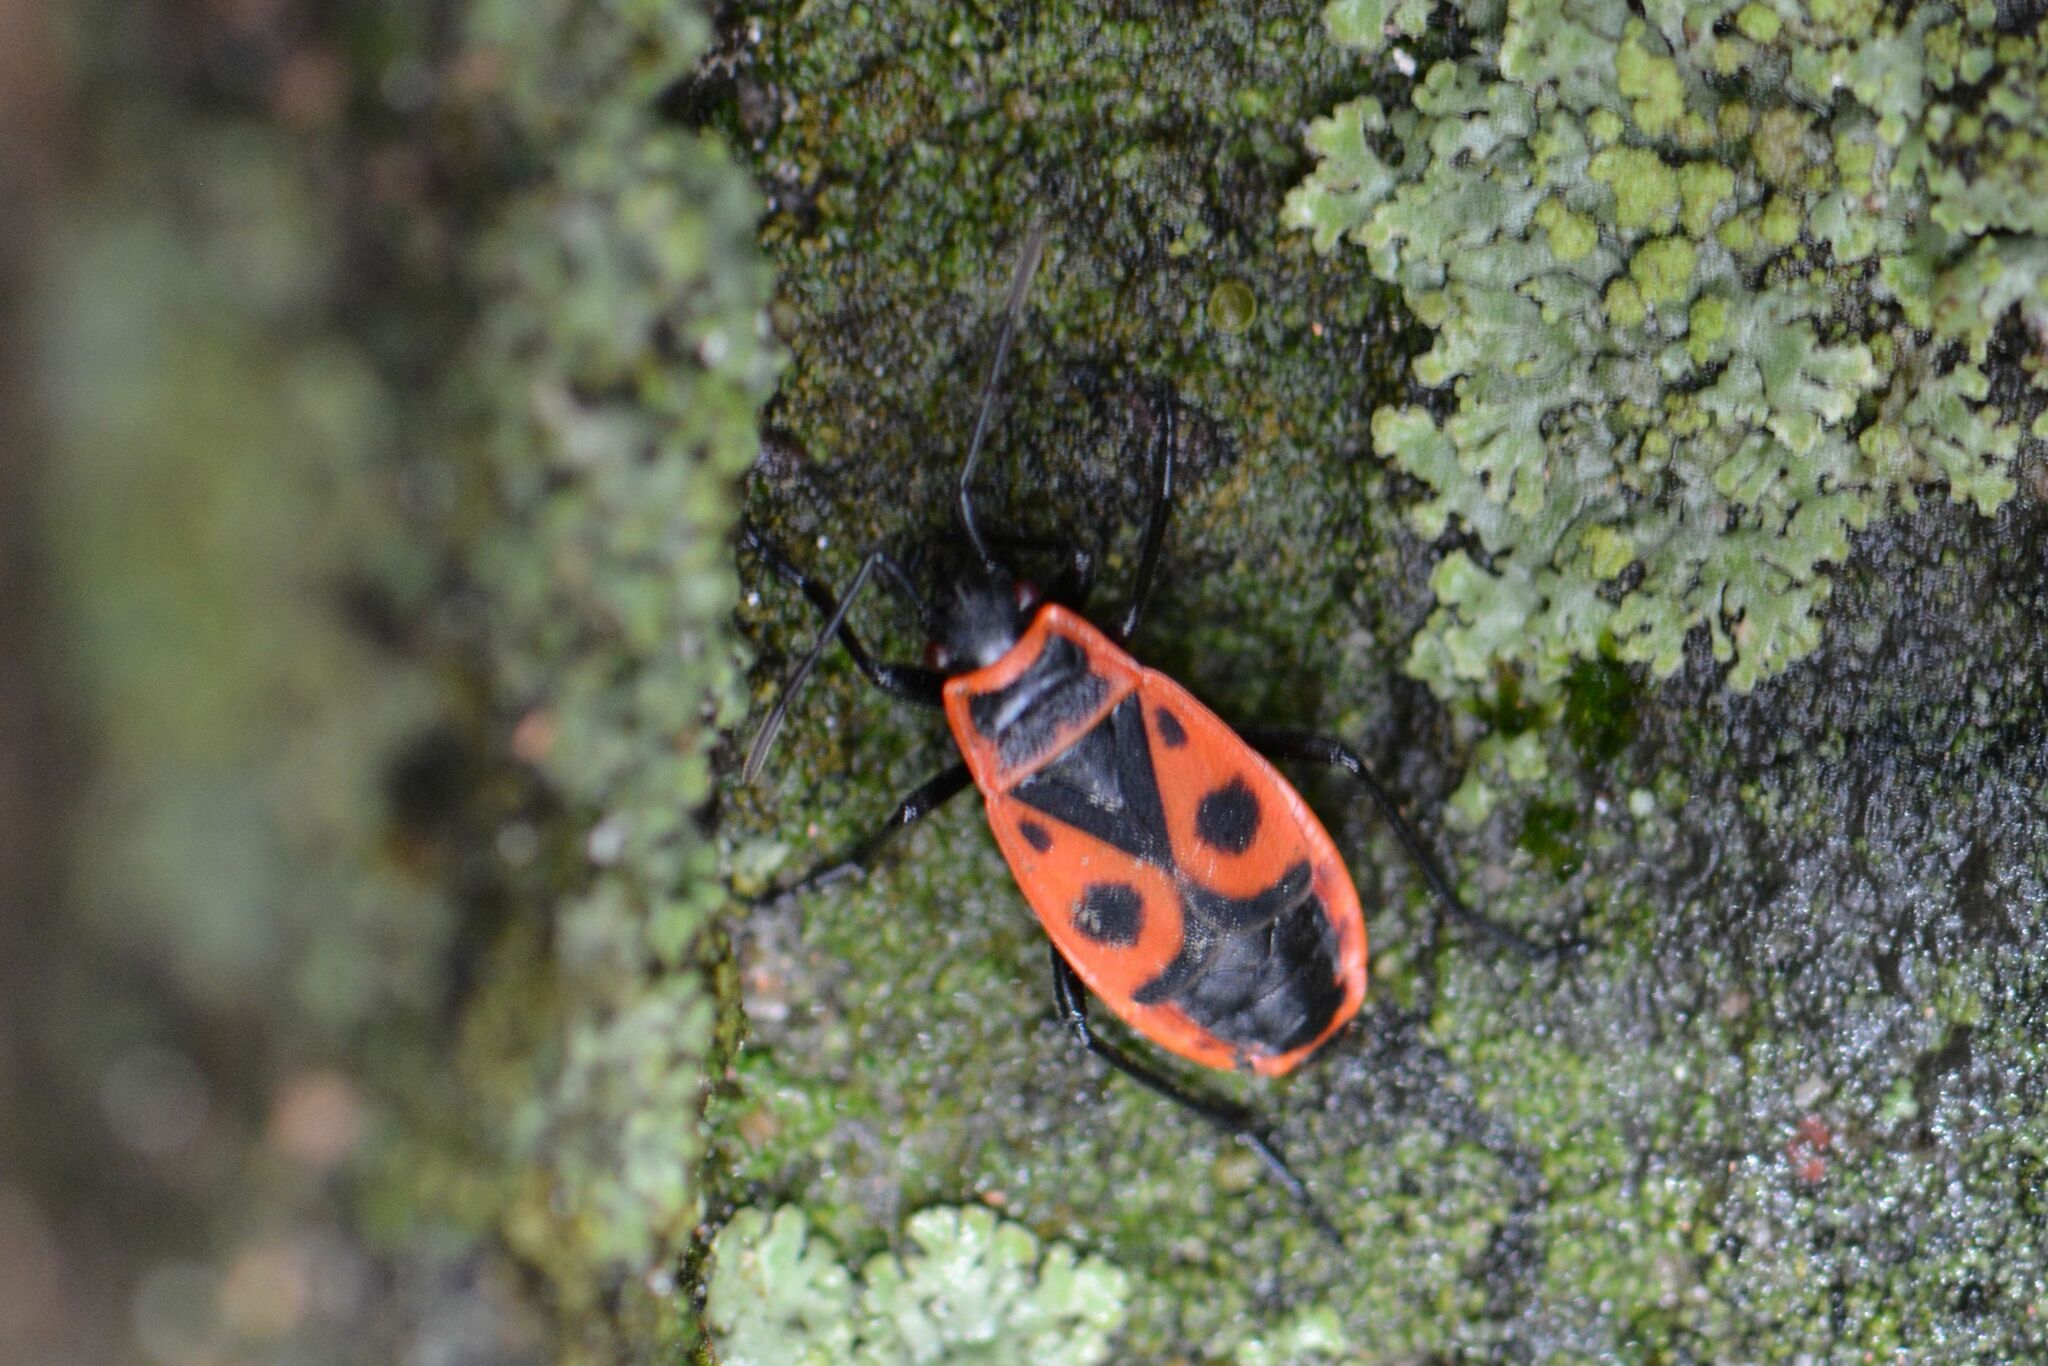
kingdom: Animalia
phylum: Arthropoda
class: Insecta
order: Hemiptera
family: Pyrrhocoridae
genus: Pyrrhocoris
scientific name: Pyrrhocoris apterus
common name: Firebug
